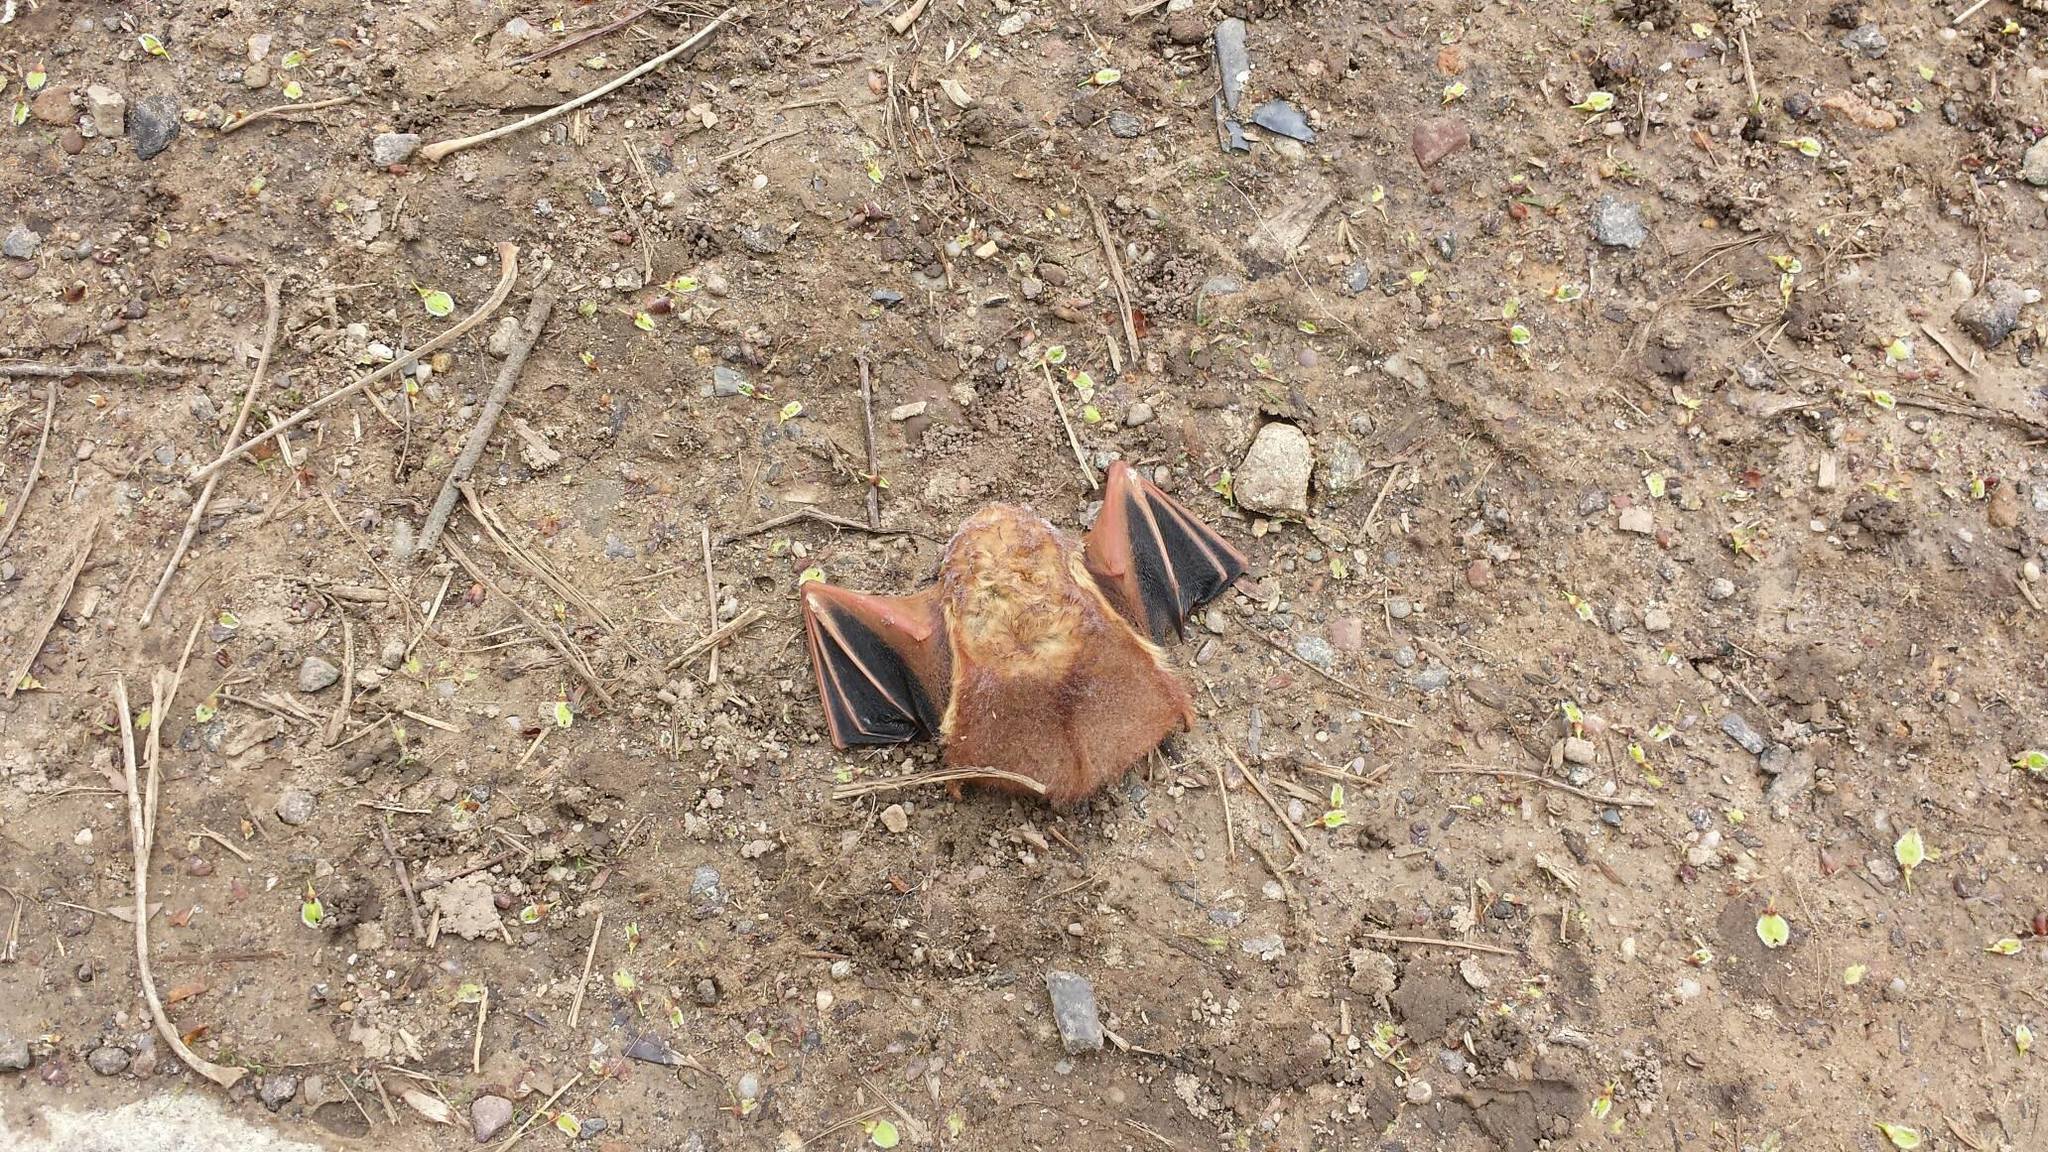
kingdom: Animalia
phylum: Chordata
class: Mammalia
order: Chiroptera
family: Vespertilionidae
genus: Lasiurus
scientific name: Lasiurus borealis
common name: Eastern red bat
